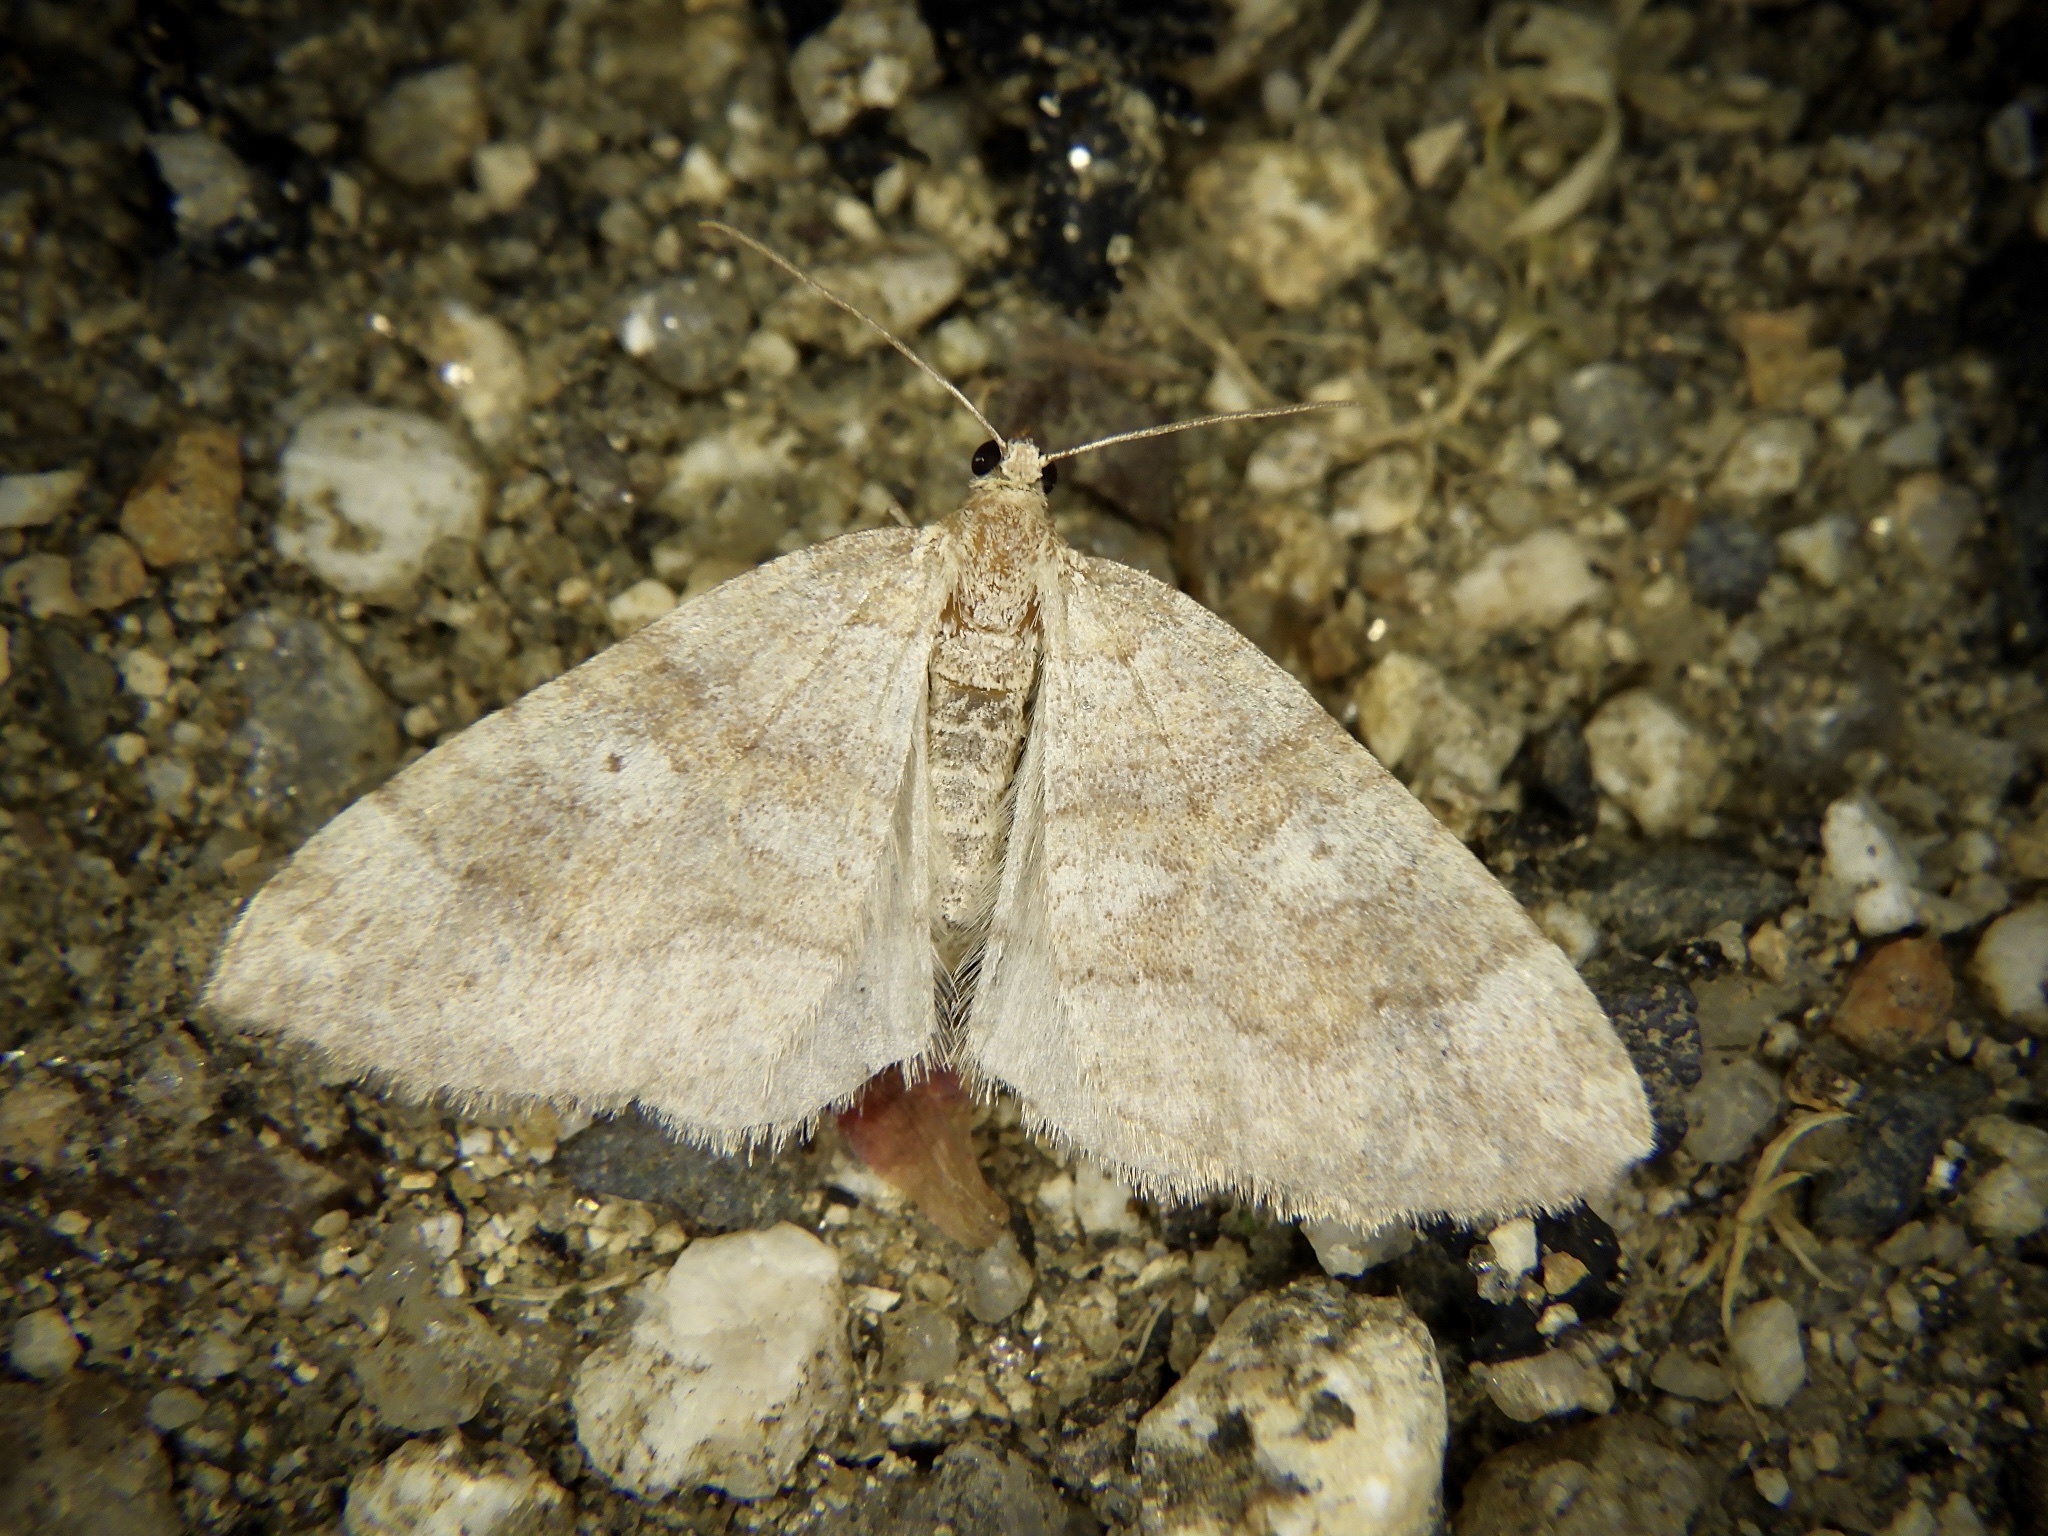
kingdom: Animalia
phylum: Arthropoda
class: Insecta
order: Lepidoptera
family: Geometridae
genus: Idiotephria
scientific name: Idiotephria evanescens
